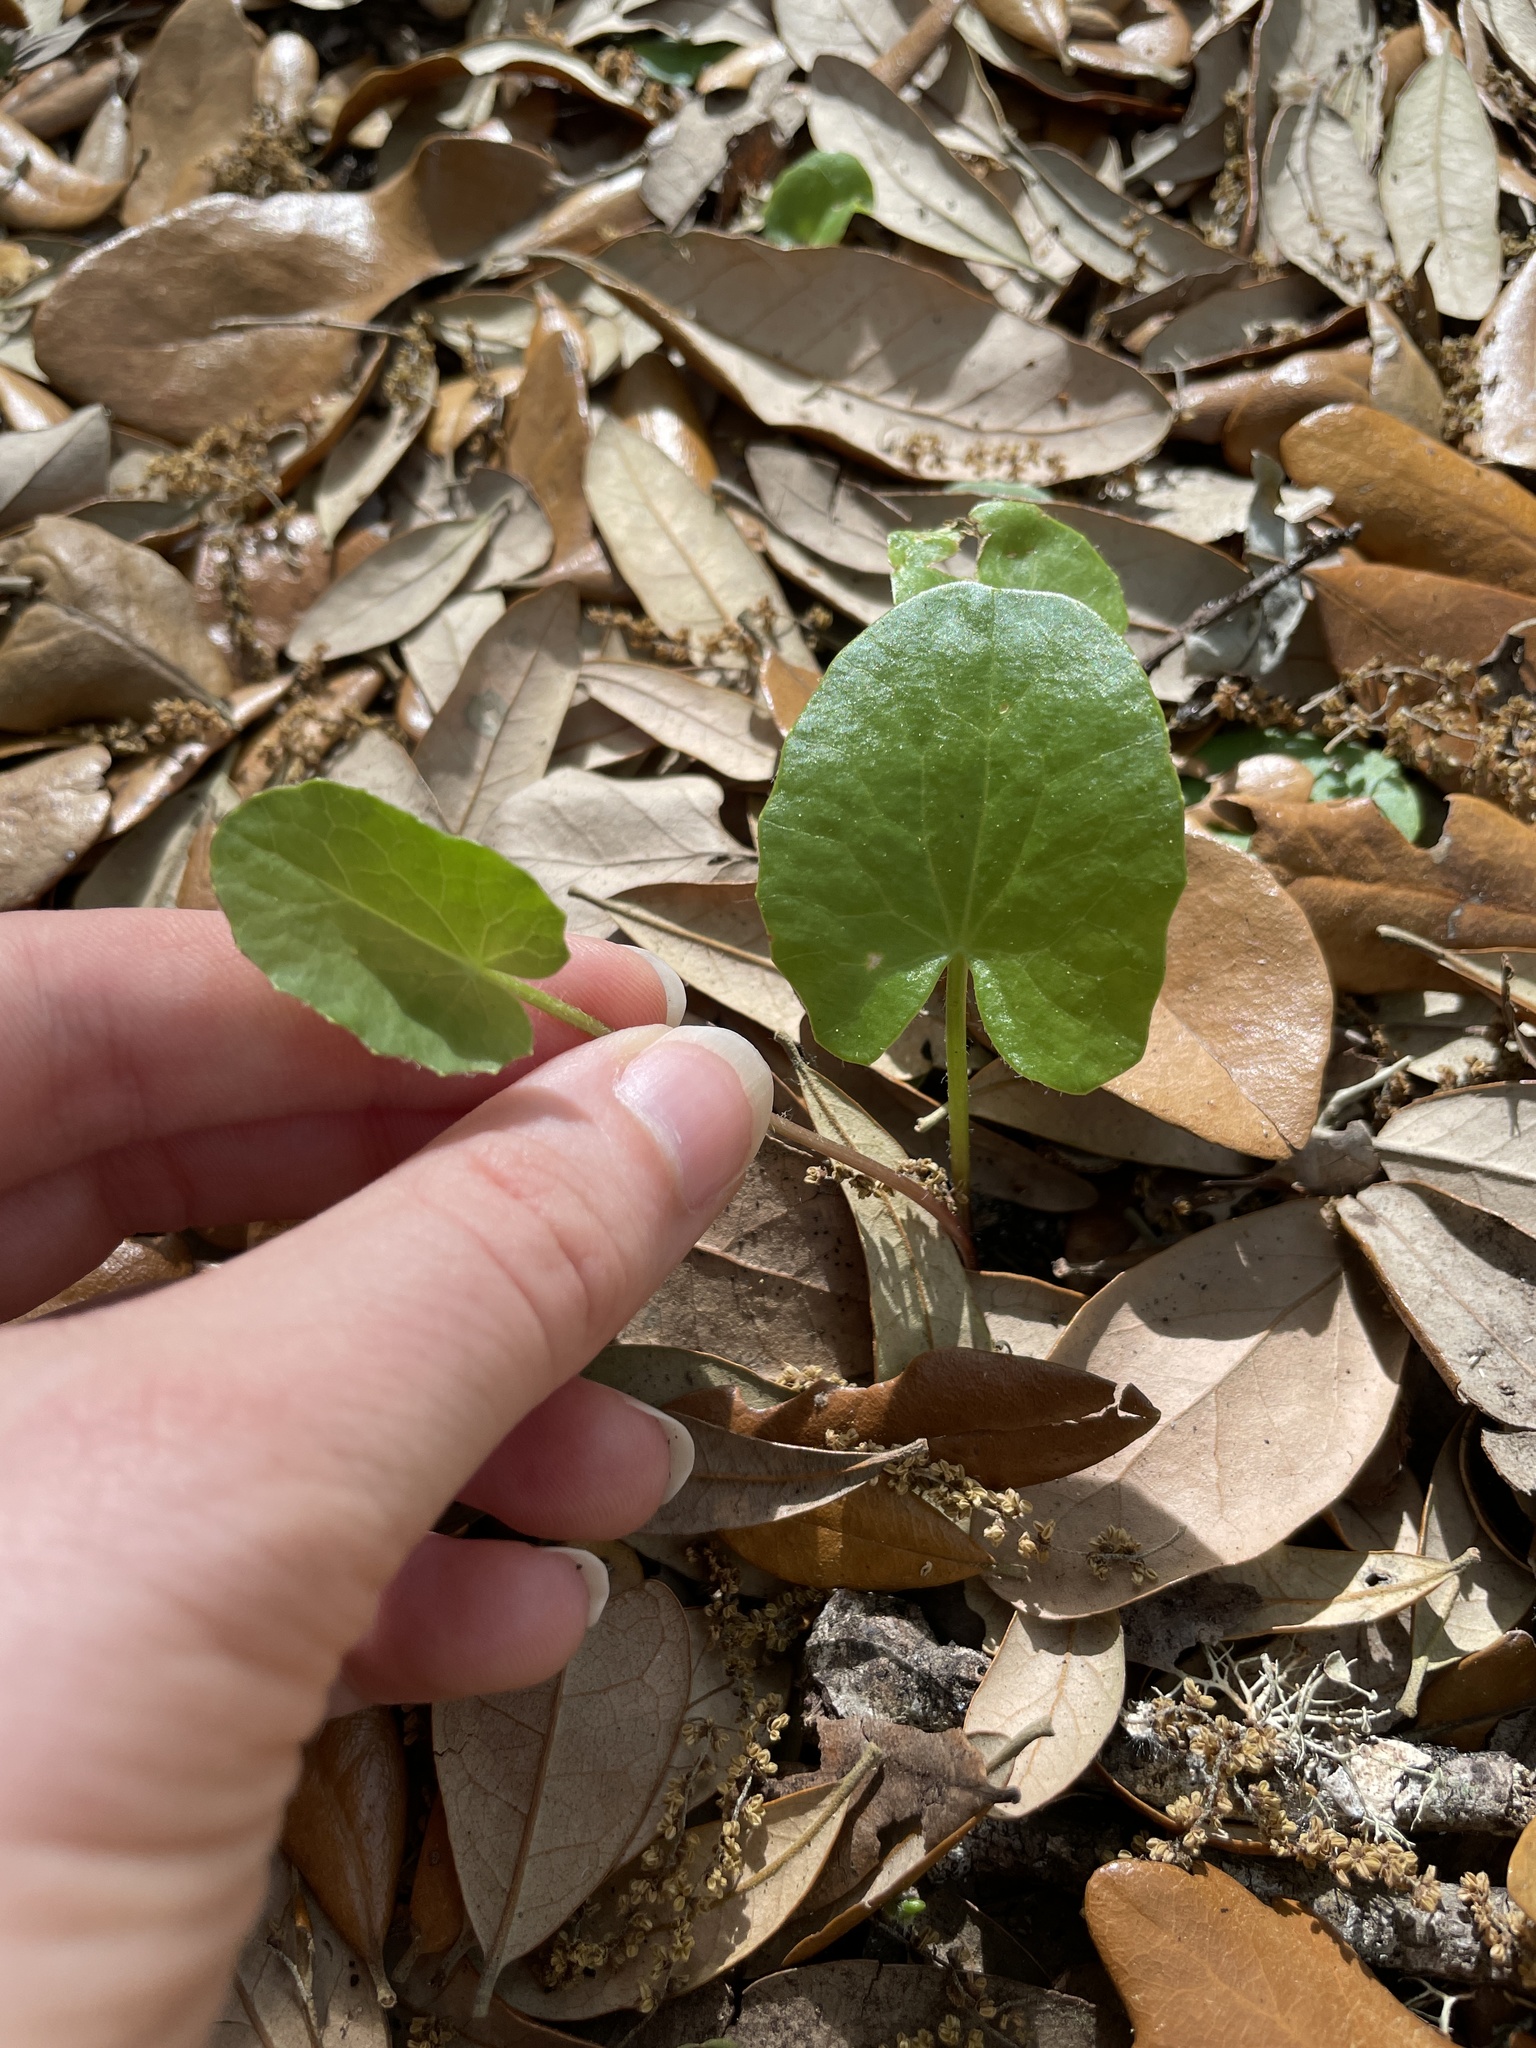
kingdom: Plantae
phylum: Tracheophyta
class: Magnoliopsida
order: Apiales
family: Apiaceae
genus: Centella
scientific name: Centella erecta
